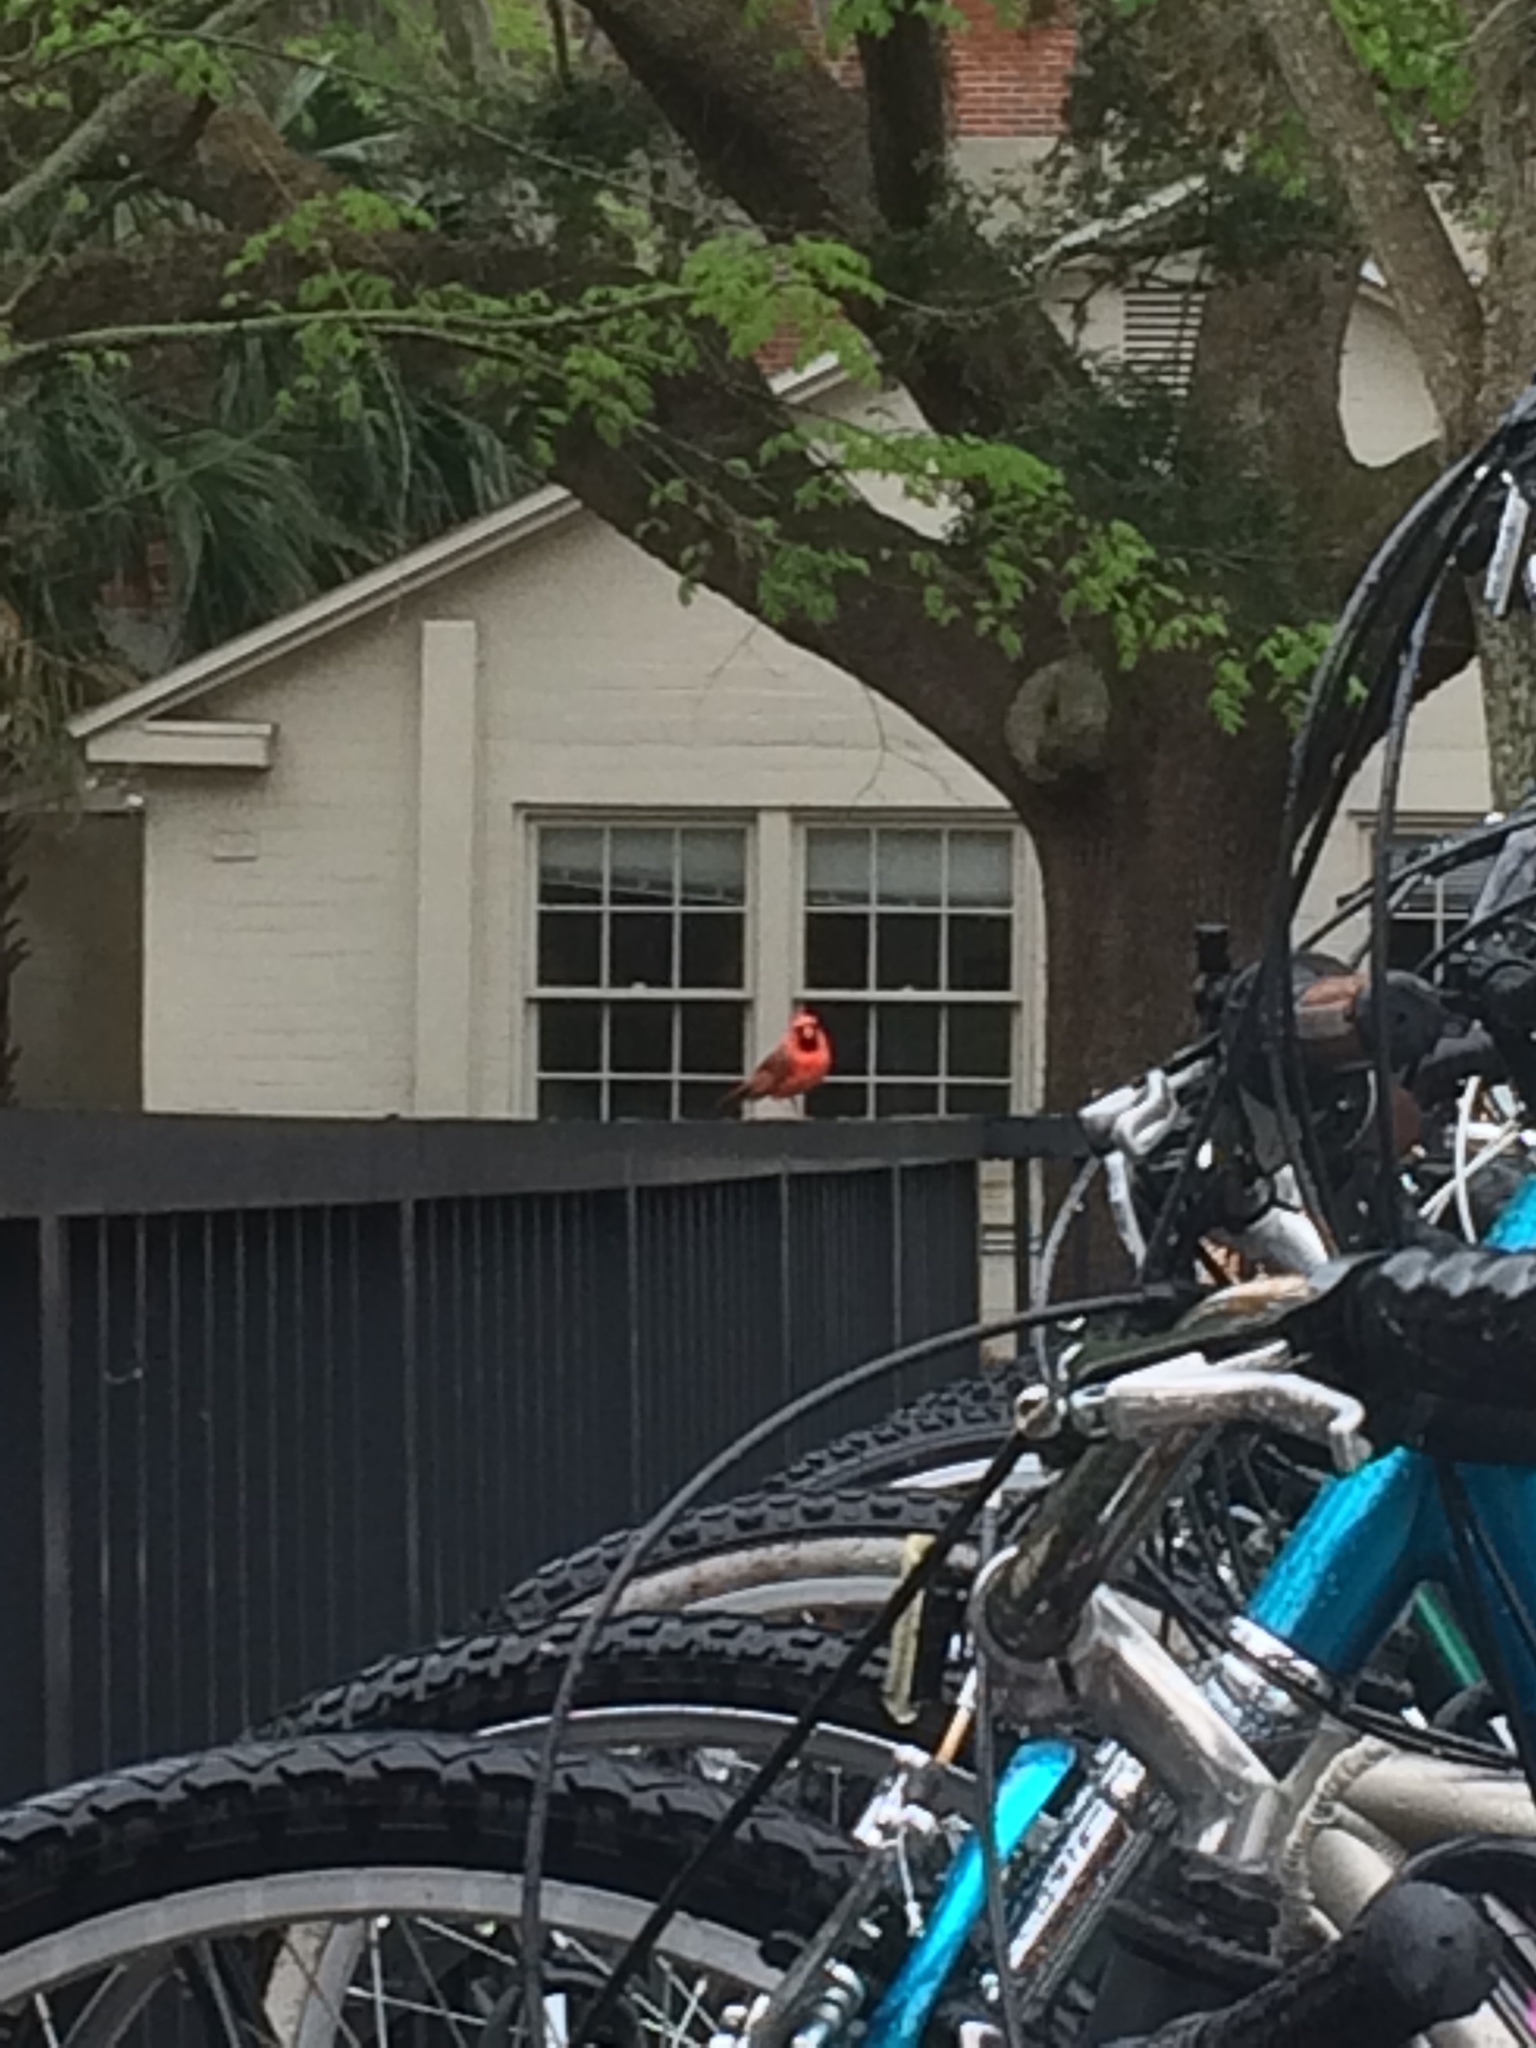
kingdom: Animalia
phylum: Chordata
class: Aves
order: Passeriformes
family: Cardinalidae
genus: Cardinalis
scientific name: Cardinalis cardinalis
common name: Northern cardinal
